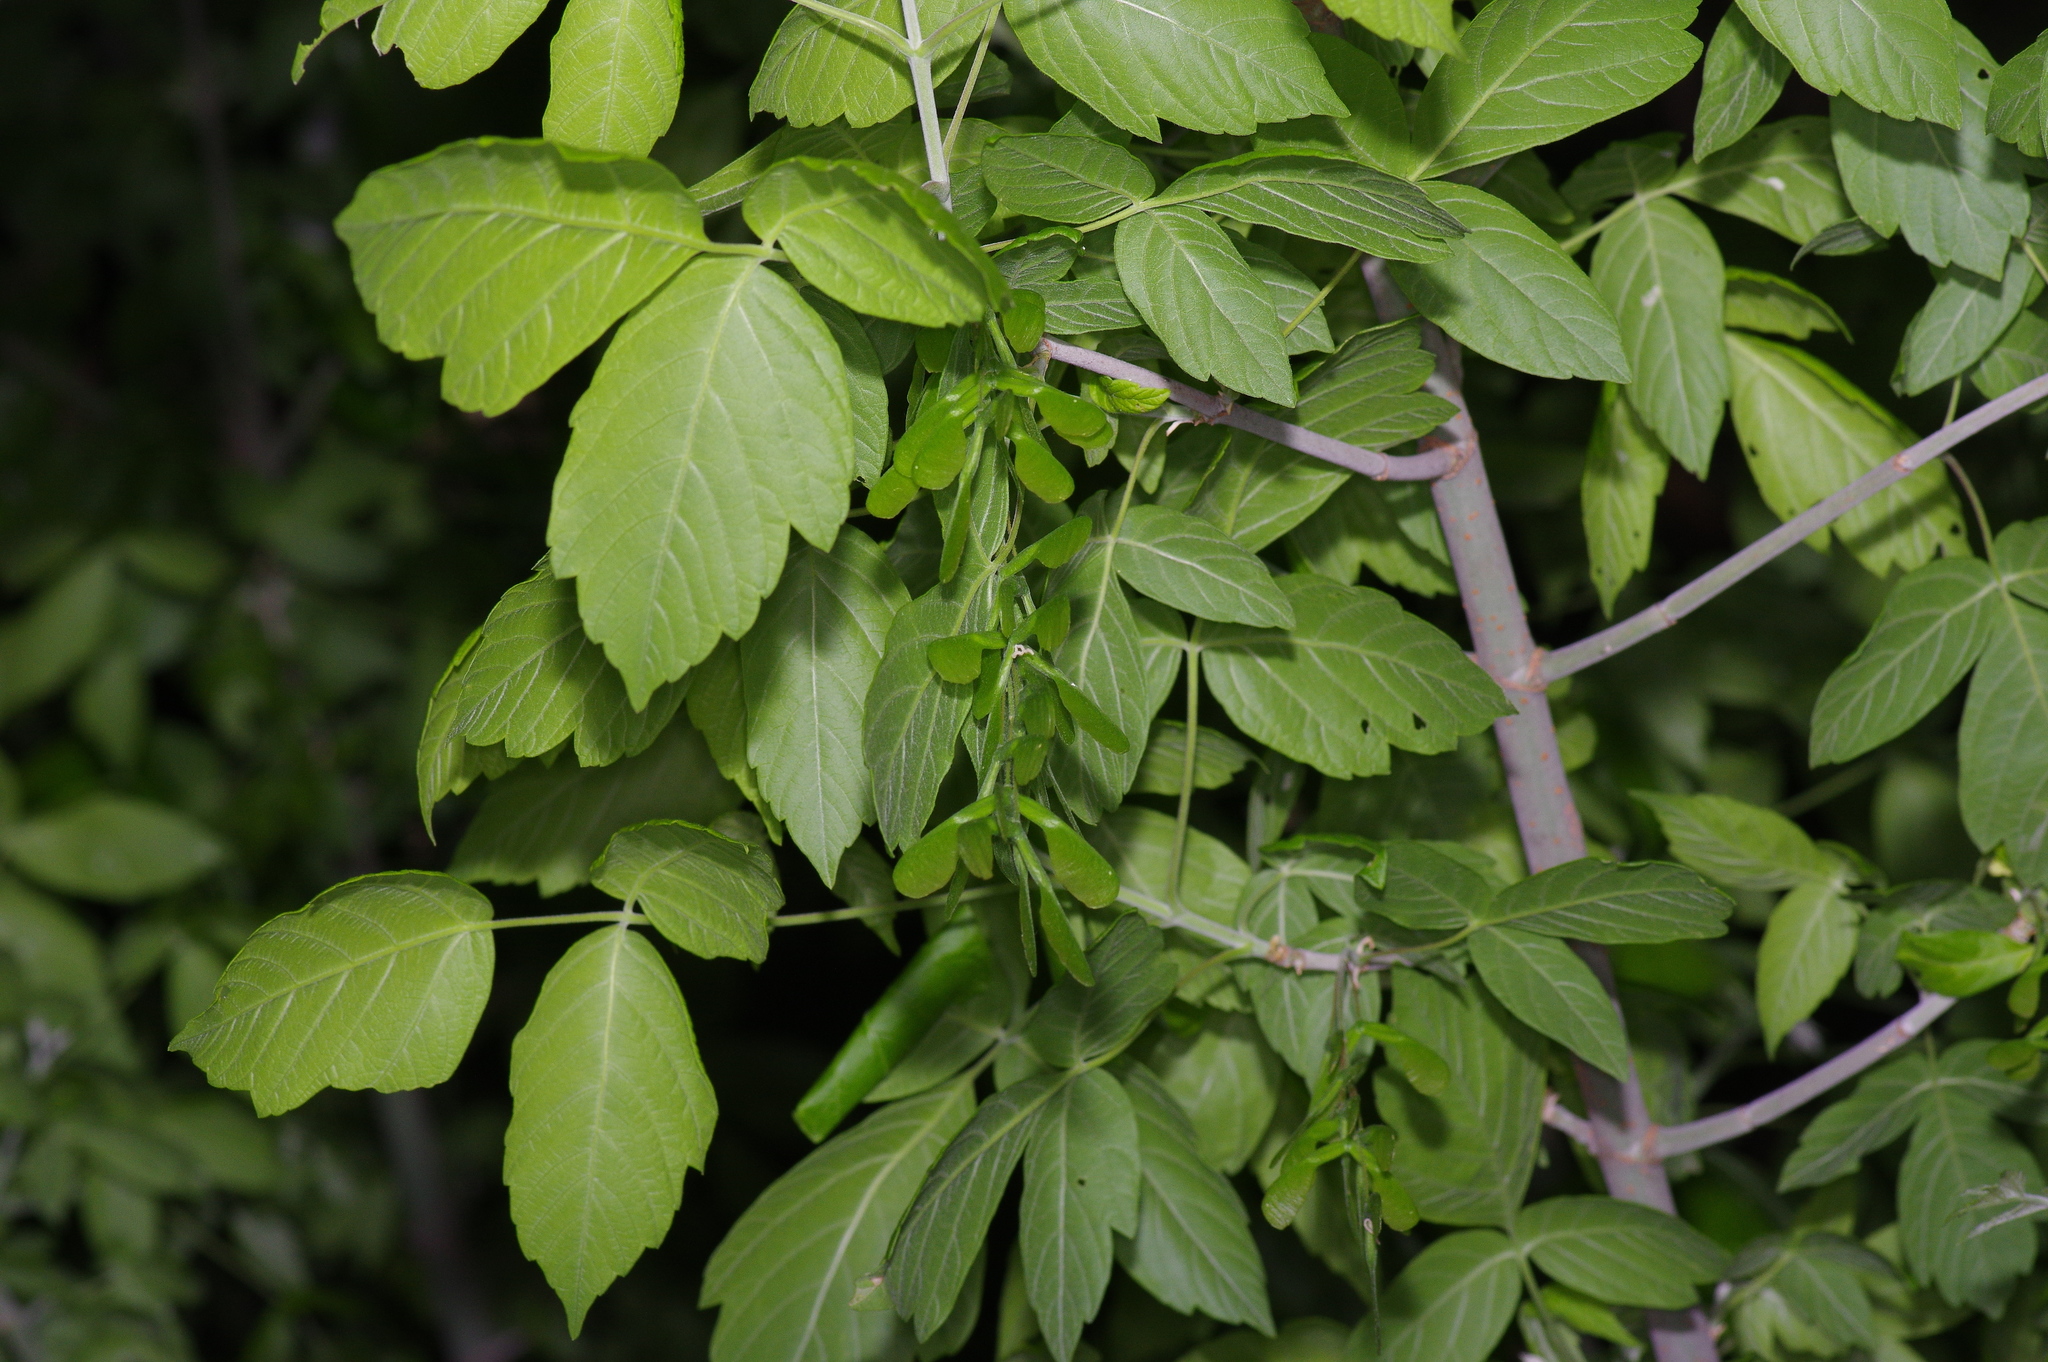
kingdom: Plantae
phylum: Tracheophyta
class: Magnoliopsida
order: Sapindales
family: Sapindaceae
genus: Acer
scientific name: Acer negundo
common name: Ashleaf maple
